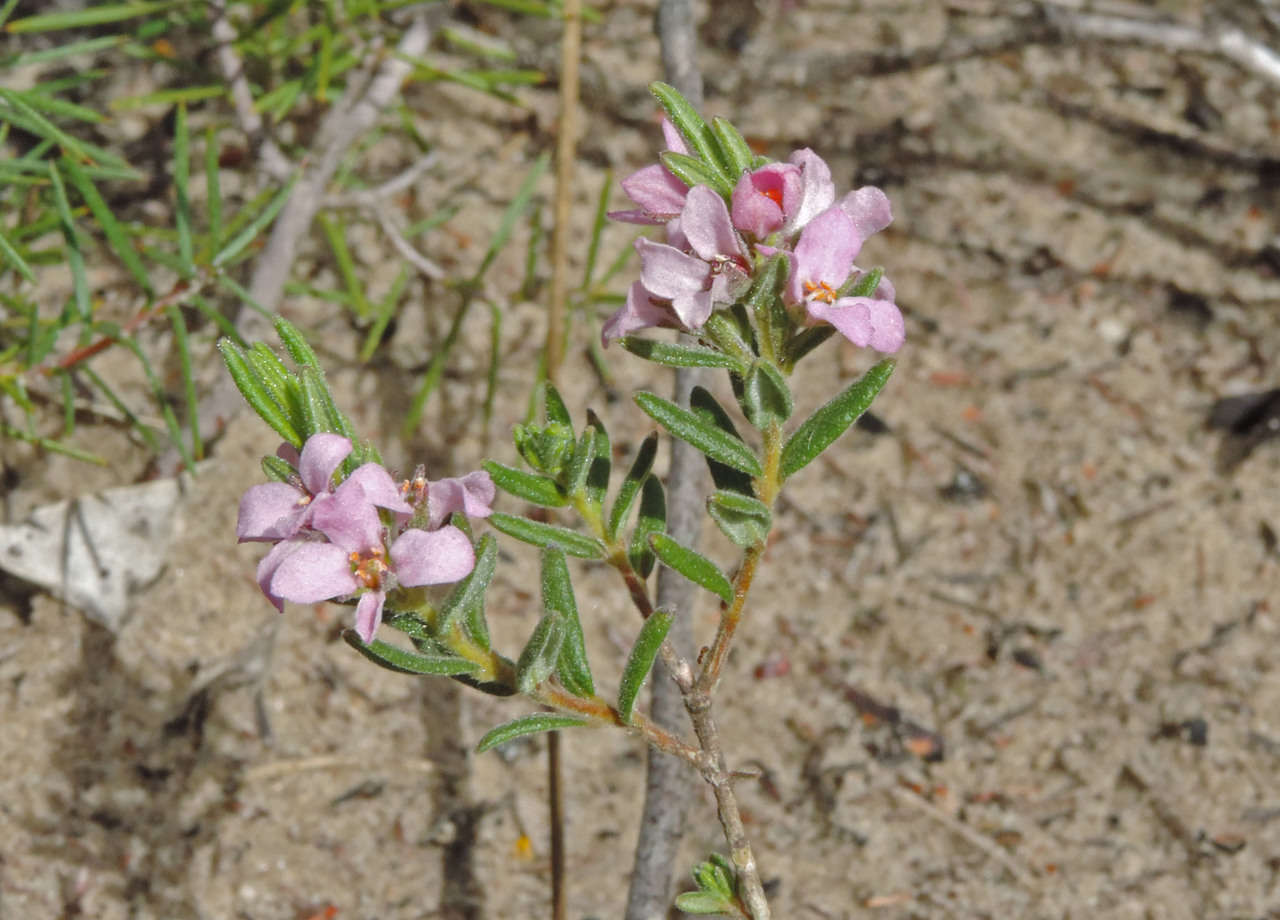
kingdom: Plantae
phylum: Tracheophyta
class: Magnoliopsida
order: Sapindales
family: Rutaceae
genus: Zieria
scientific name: Zieria veronicea
